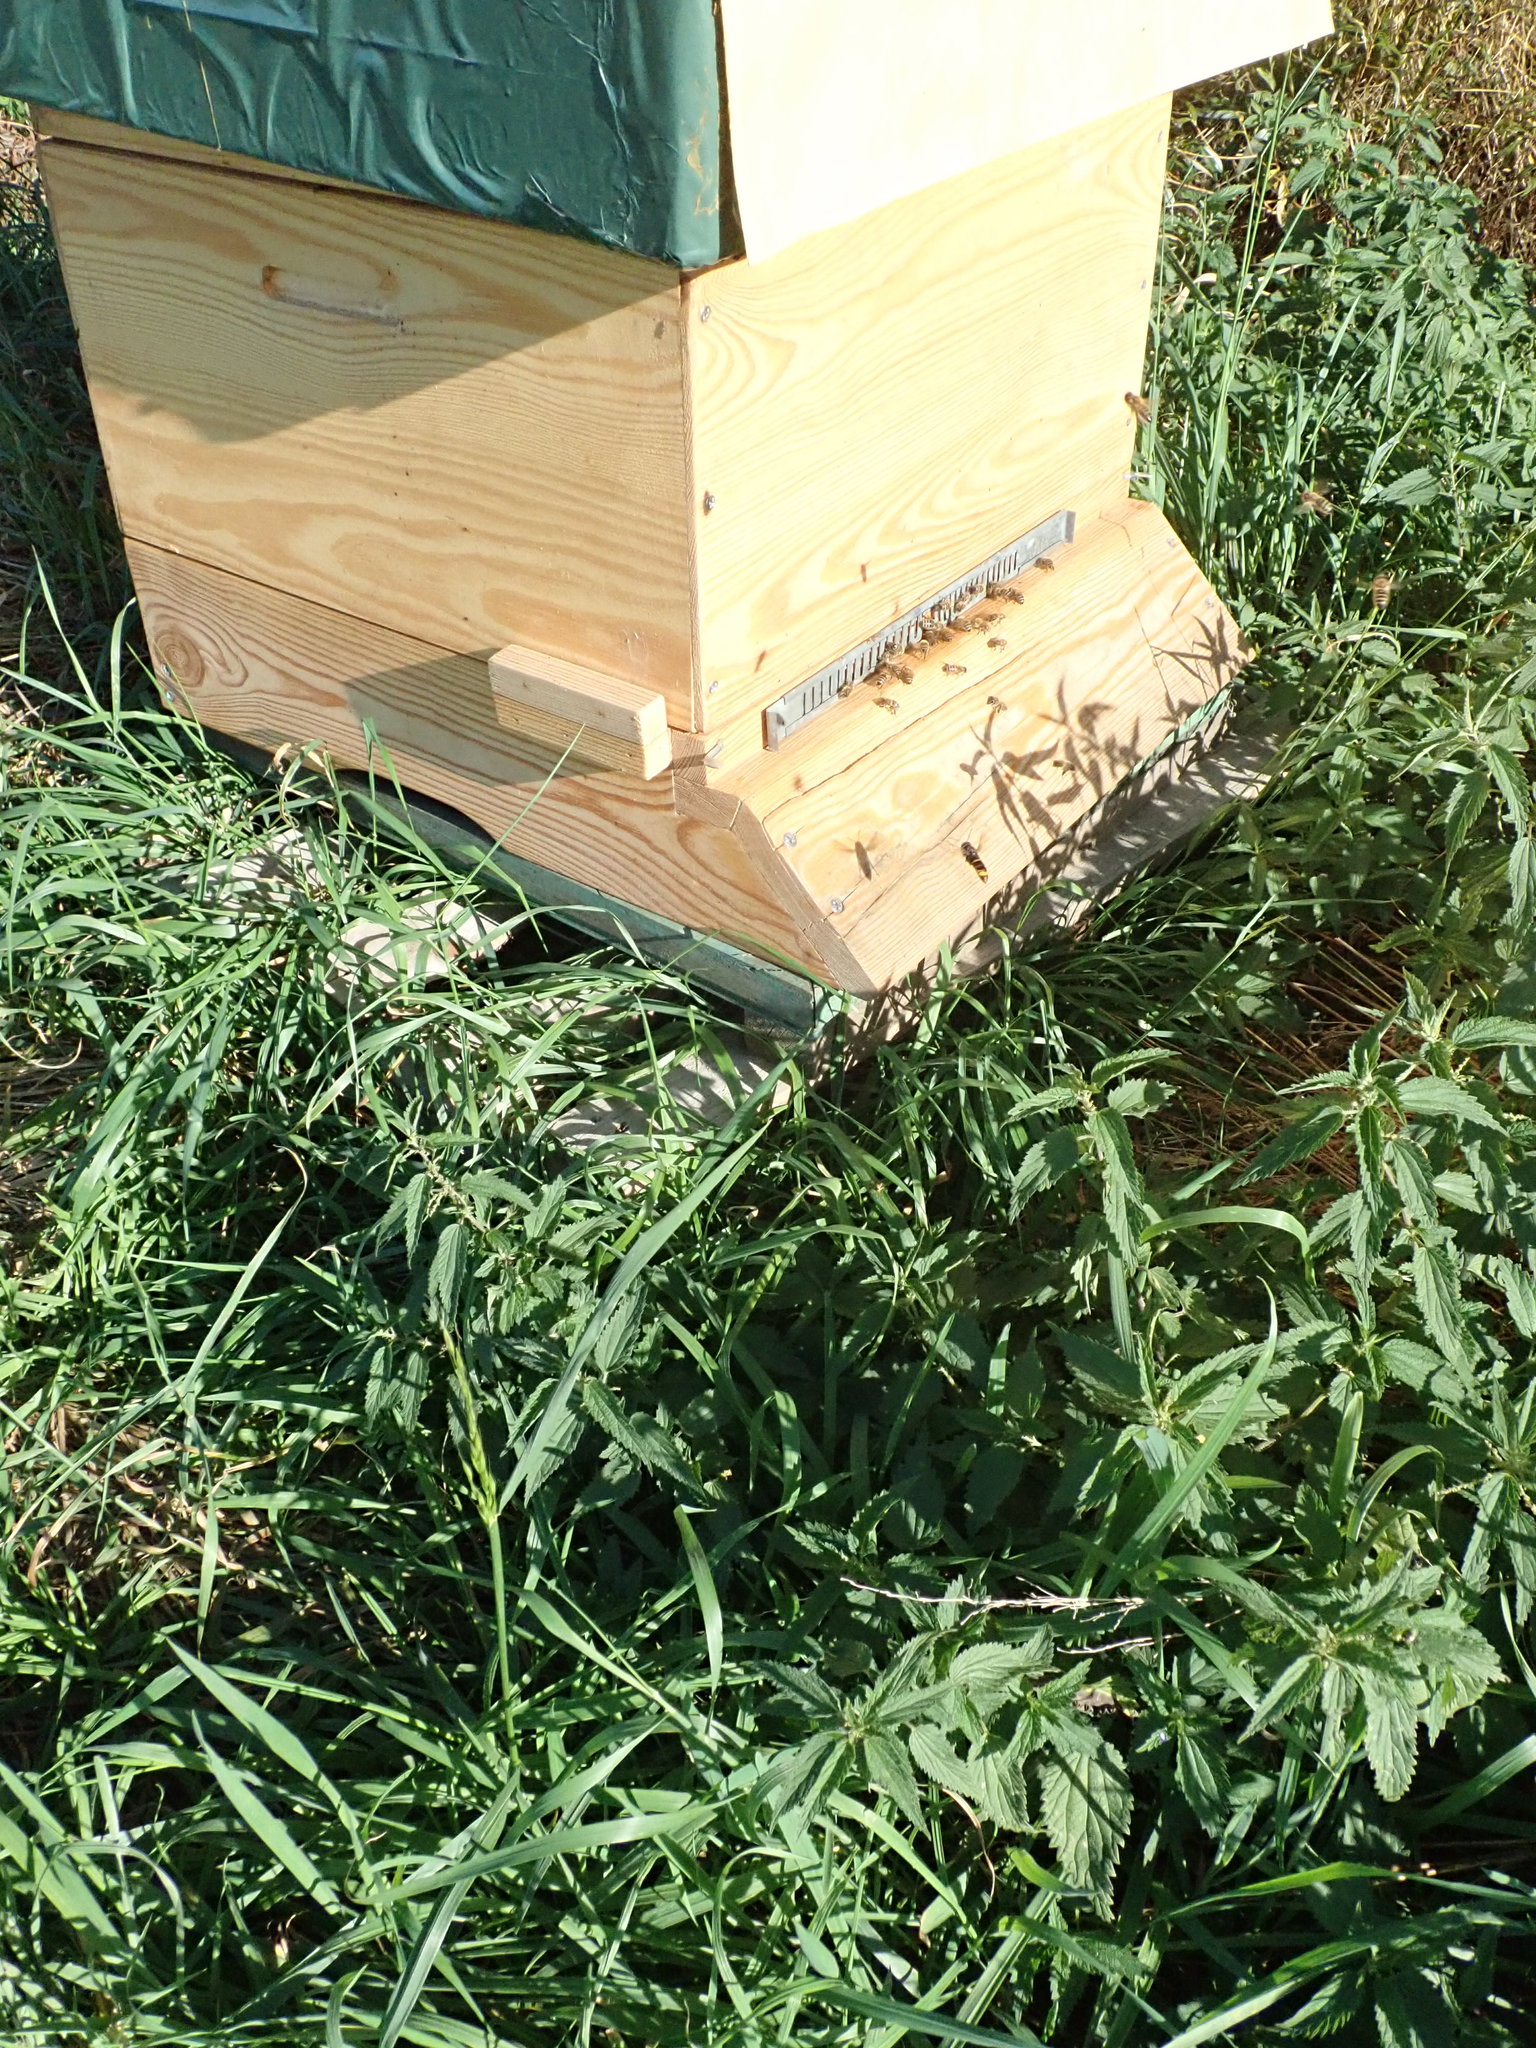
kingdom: Animalia
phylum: Arthropoda
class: Insecta
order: Hymenoptera
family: Vespidae
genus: Vespa
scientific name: Vespa velutina
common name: Asian hornet
